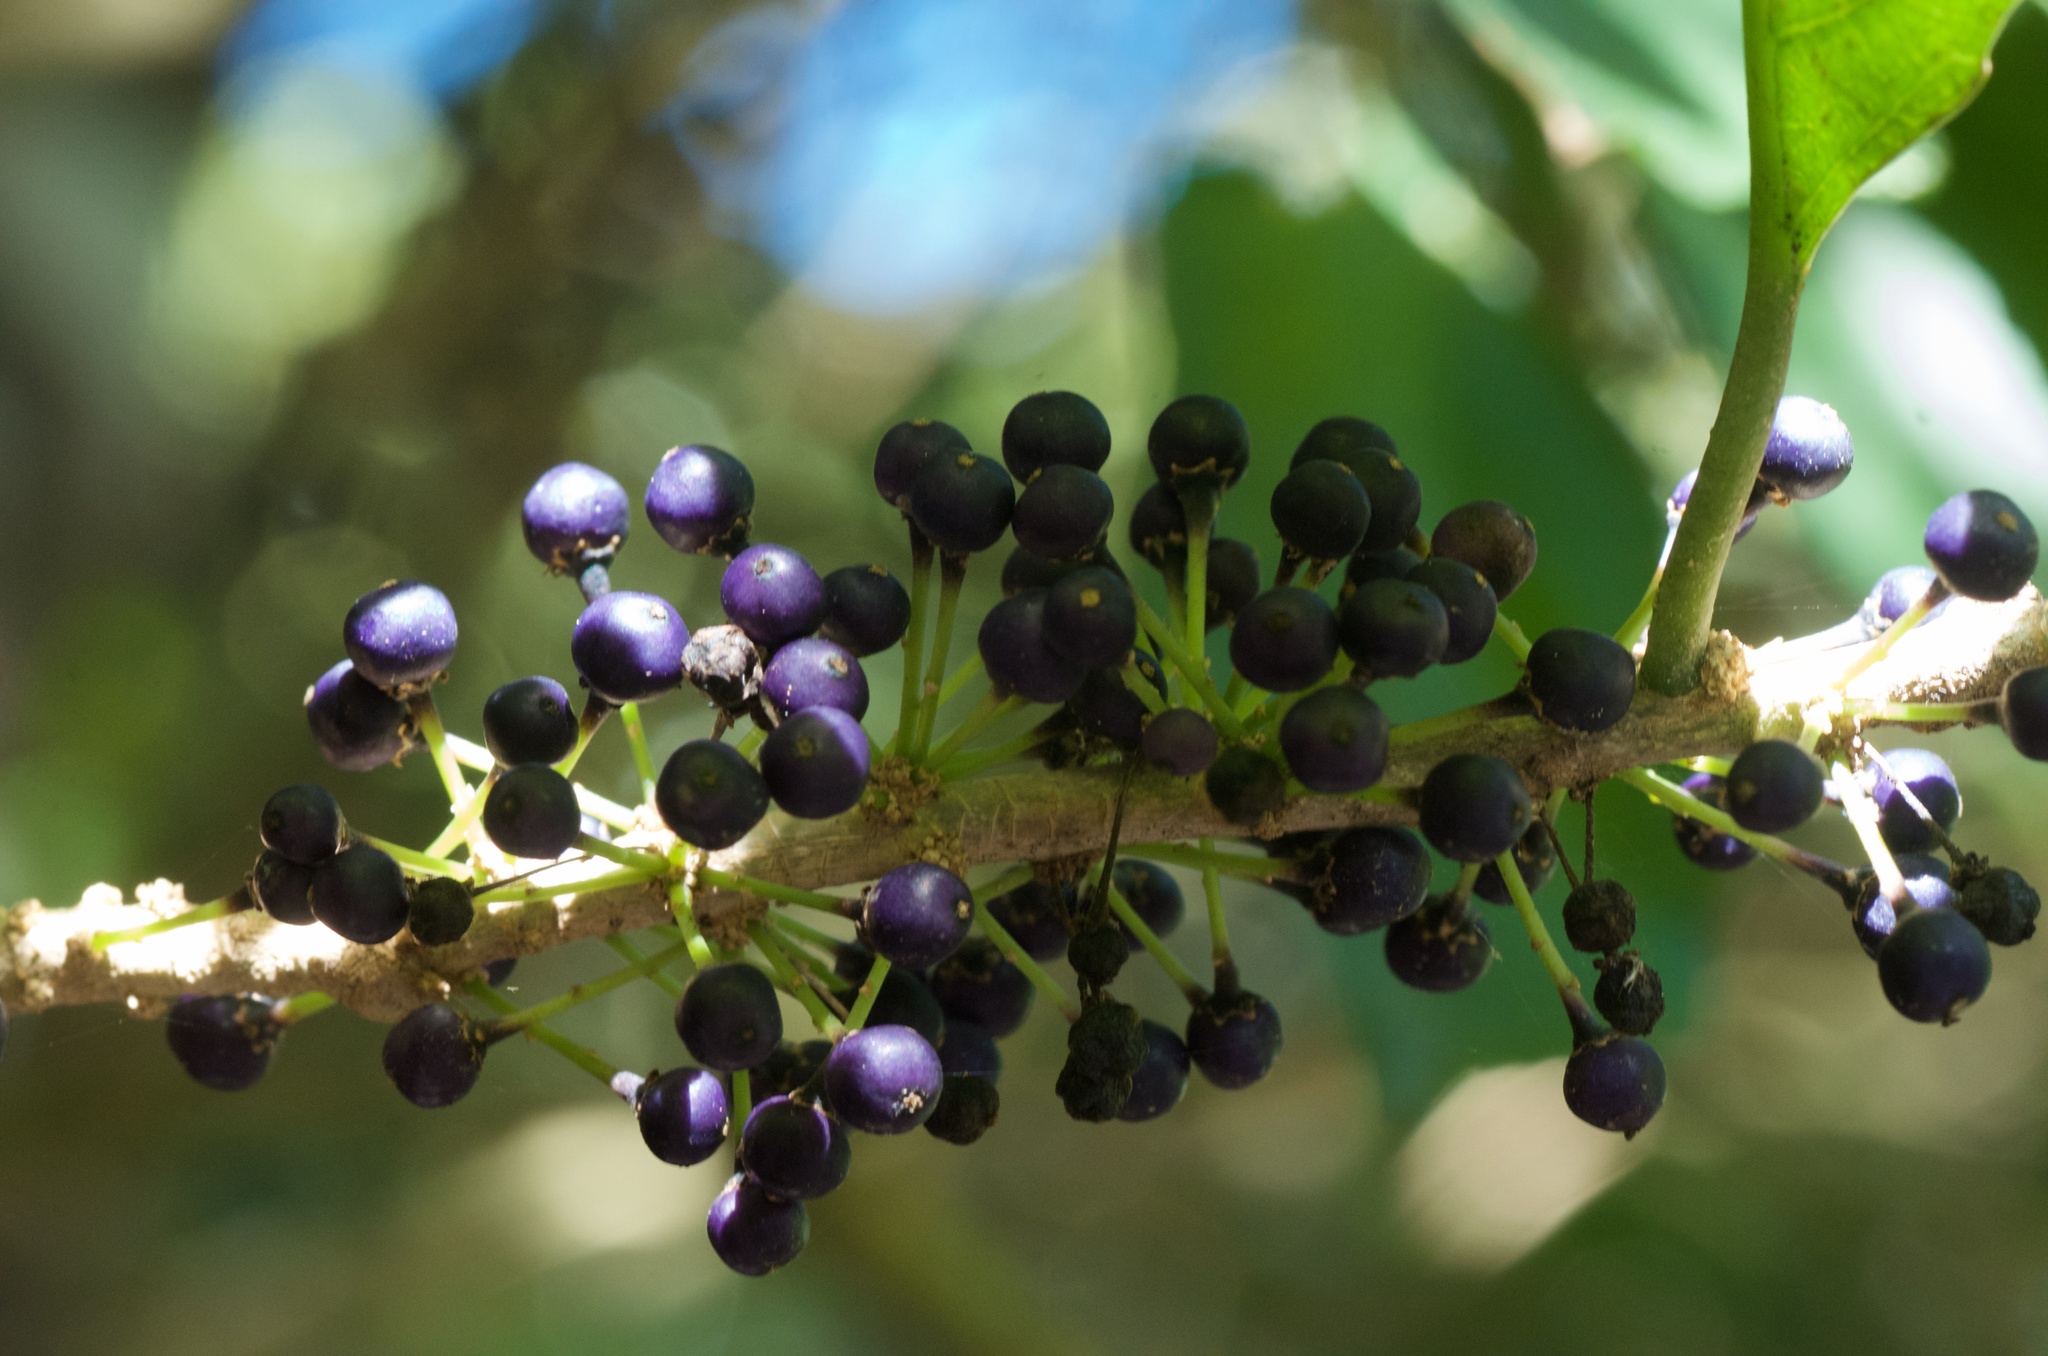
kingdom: Plantae
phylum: Tracheophyta
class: Magnoliopsida
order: Malpighiales
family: Violaceae
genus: Melicytus
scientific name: Melicytus ramiflorus
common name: Mahoe
